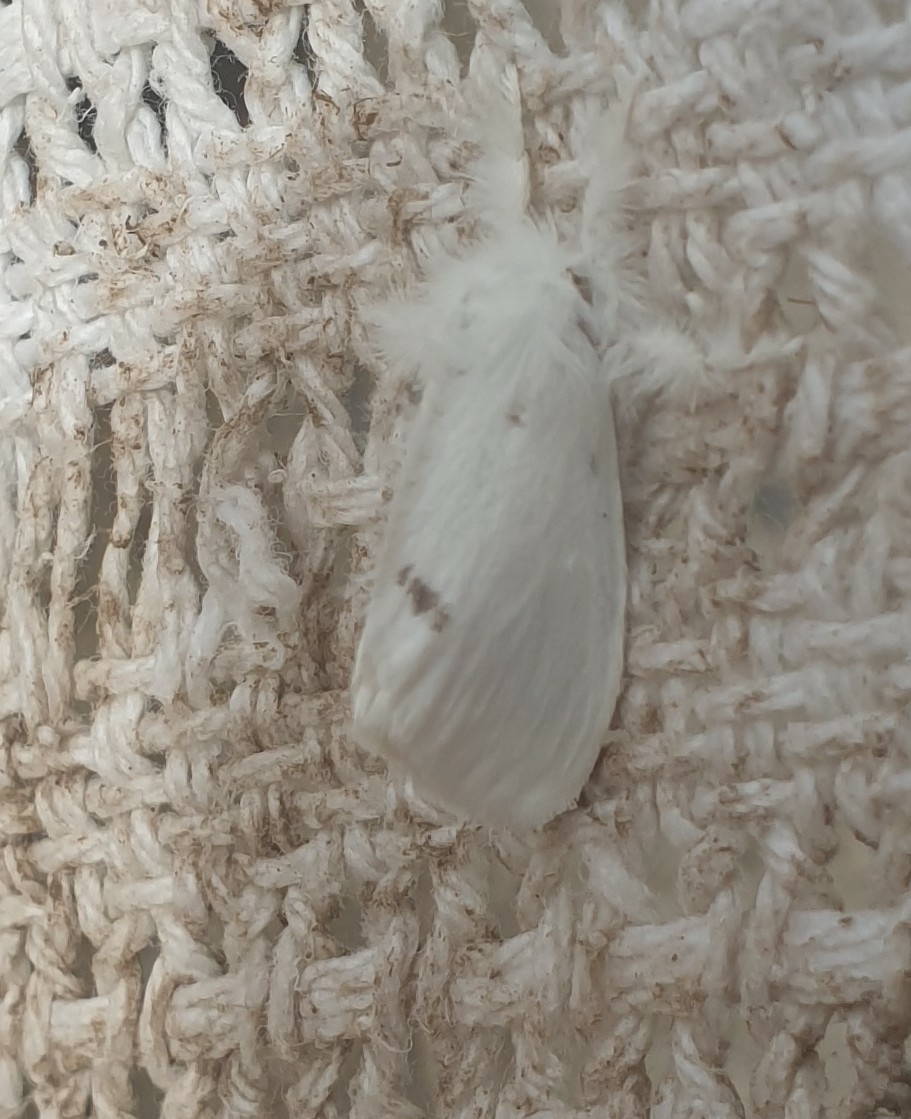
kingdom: Animalia
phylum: Arthropoda
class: Insecta
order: Lepidoptera
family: Erebidae
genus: Sphrageidus
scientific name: Sphrageidus similis
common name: Yellow-tail
